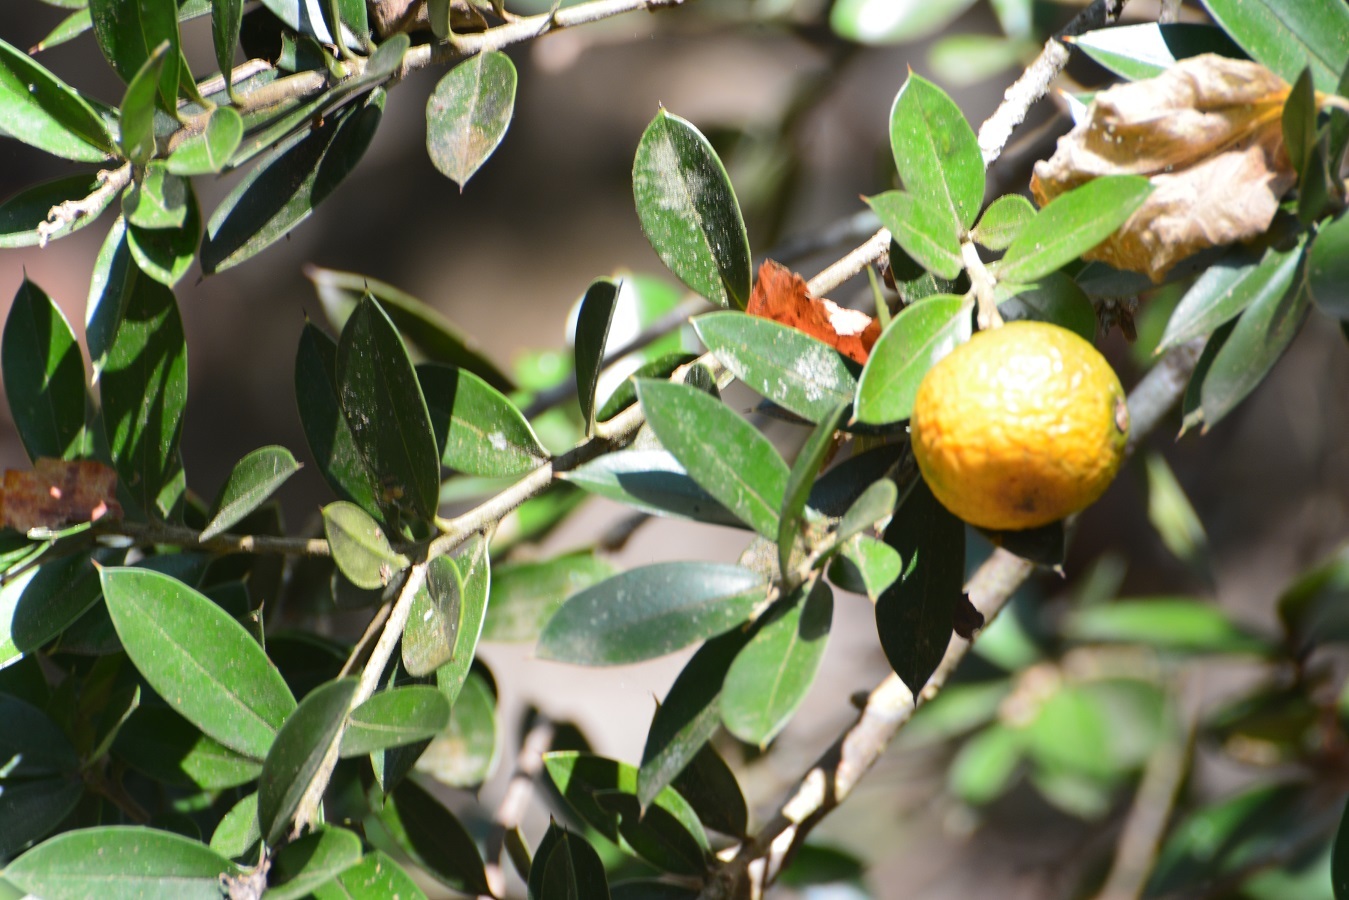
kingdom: Plantae
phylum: Tracheophyta
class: Magnoliopsida
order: Ericales
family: Primulaceae
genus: Bonellia
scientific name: Bonellia macrocarpa
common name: Primrose
